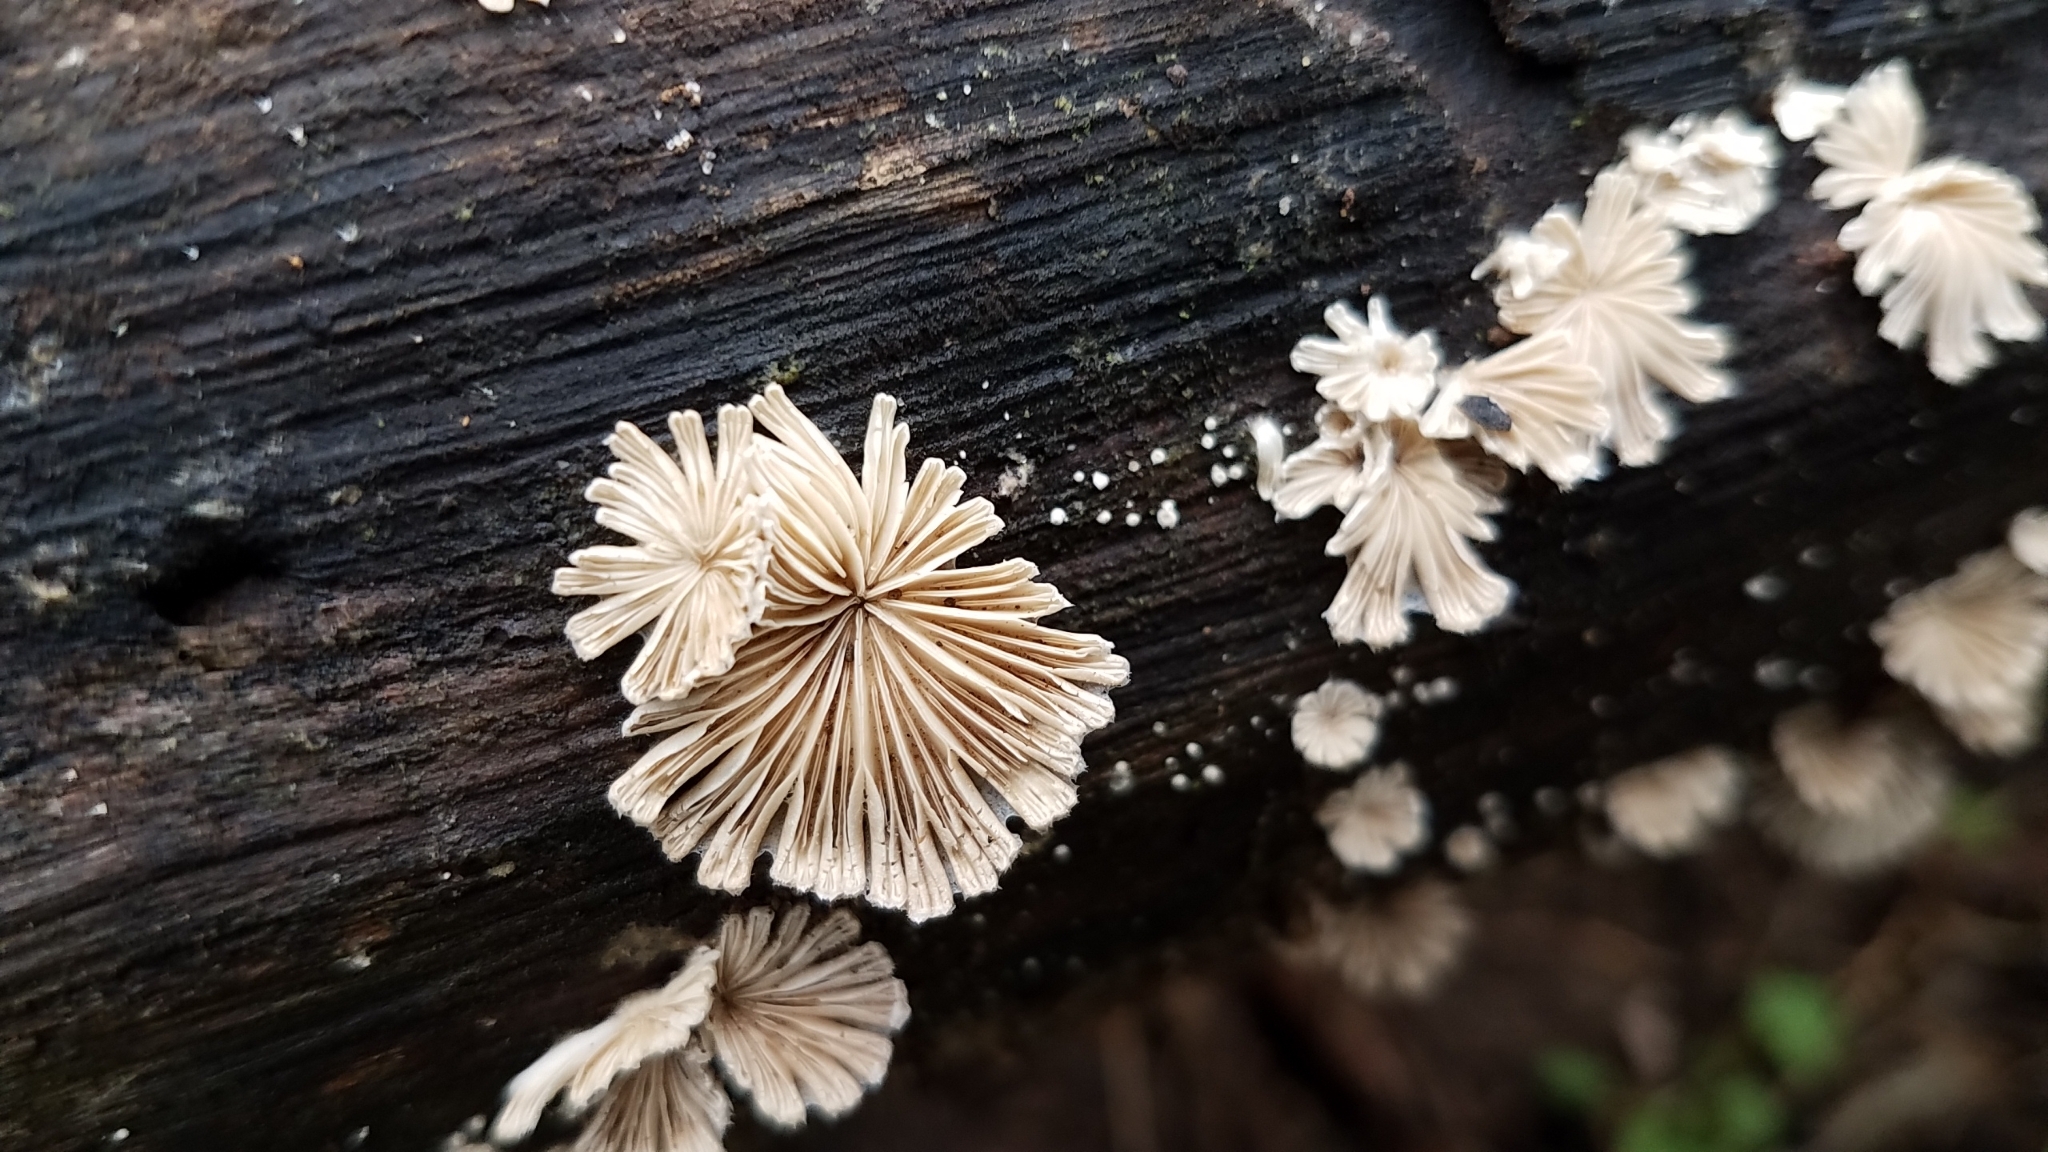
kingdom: Fungi
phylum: Basidiomycota
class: Agaricomycetes
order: Agaricales
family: Schizophyllaceae
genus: Schizophyllum
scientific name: Schizophyllum commune
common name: Common porecrust
